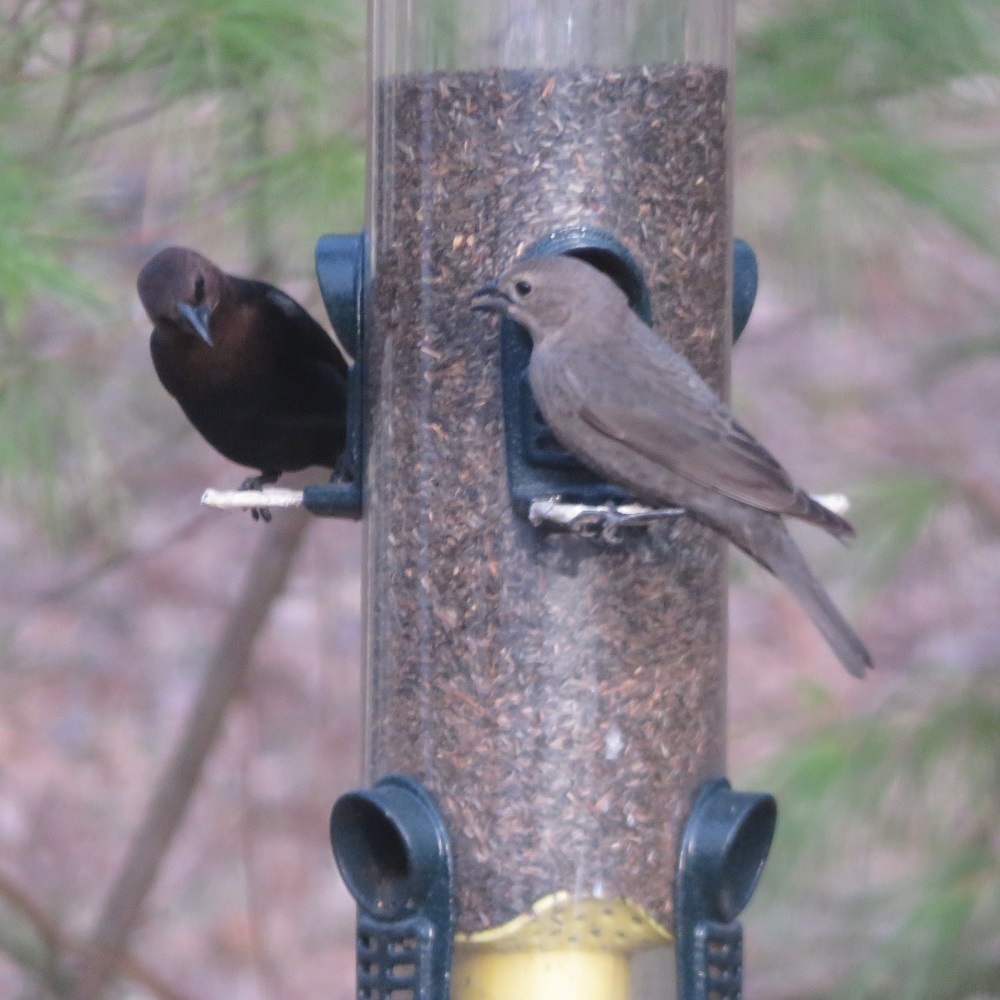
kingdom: Animalia
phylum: Chordata
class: Aves
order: Passeriformes
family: Icteridae
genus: Molothrus
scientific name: Molothrus ater
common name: Brown-headed cowbird
